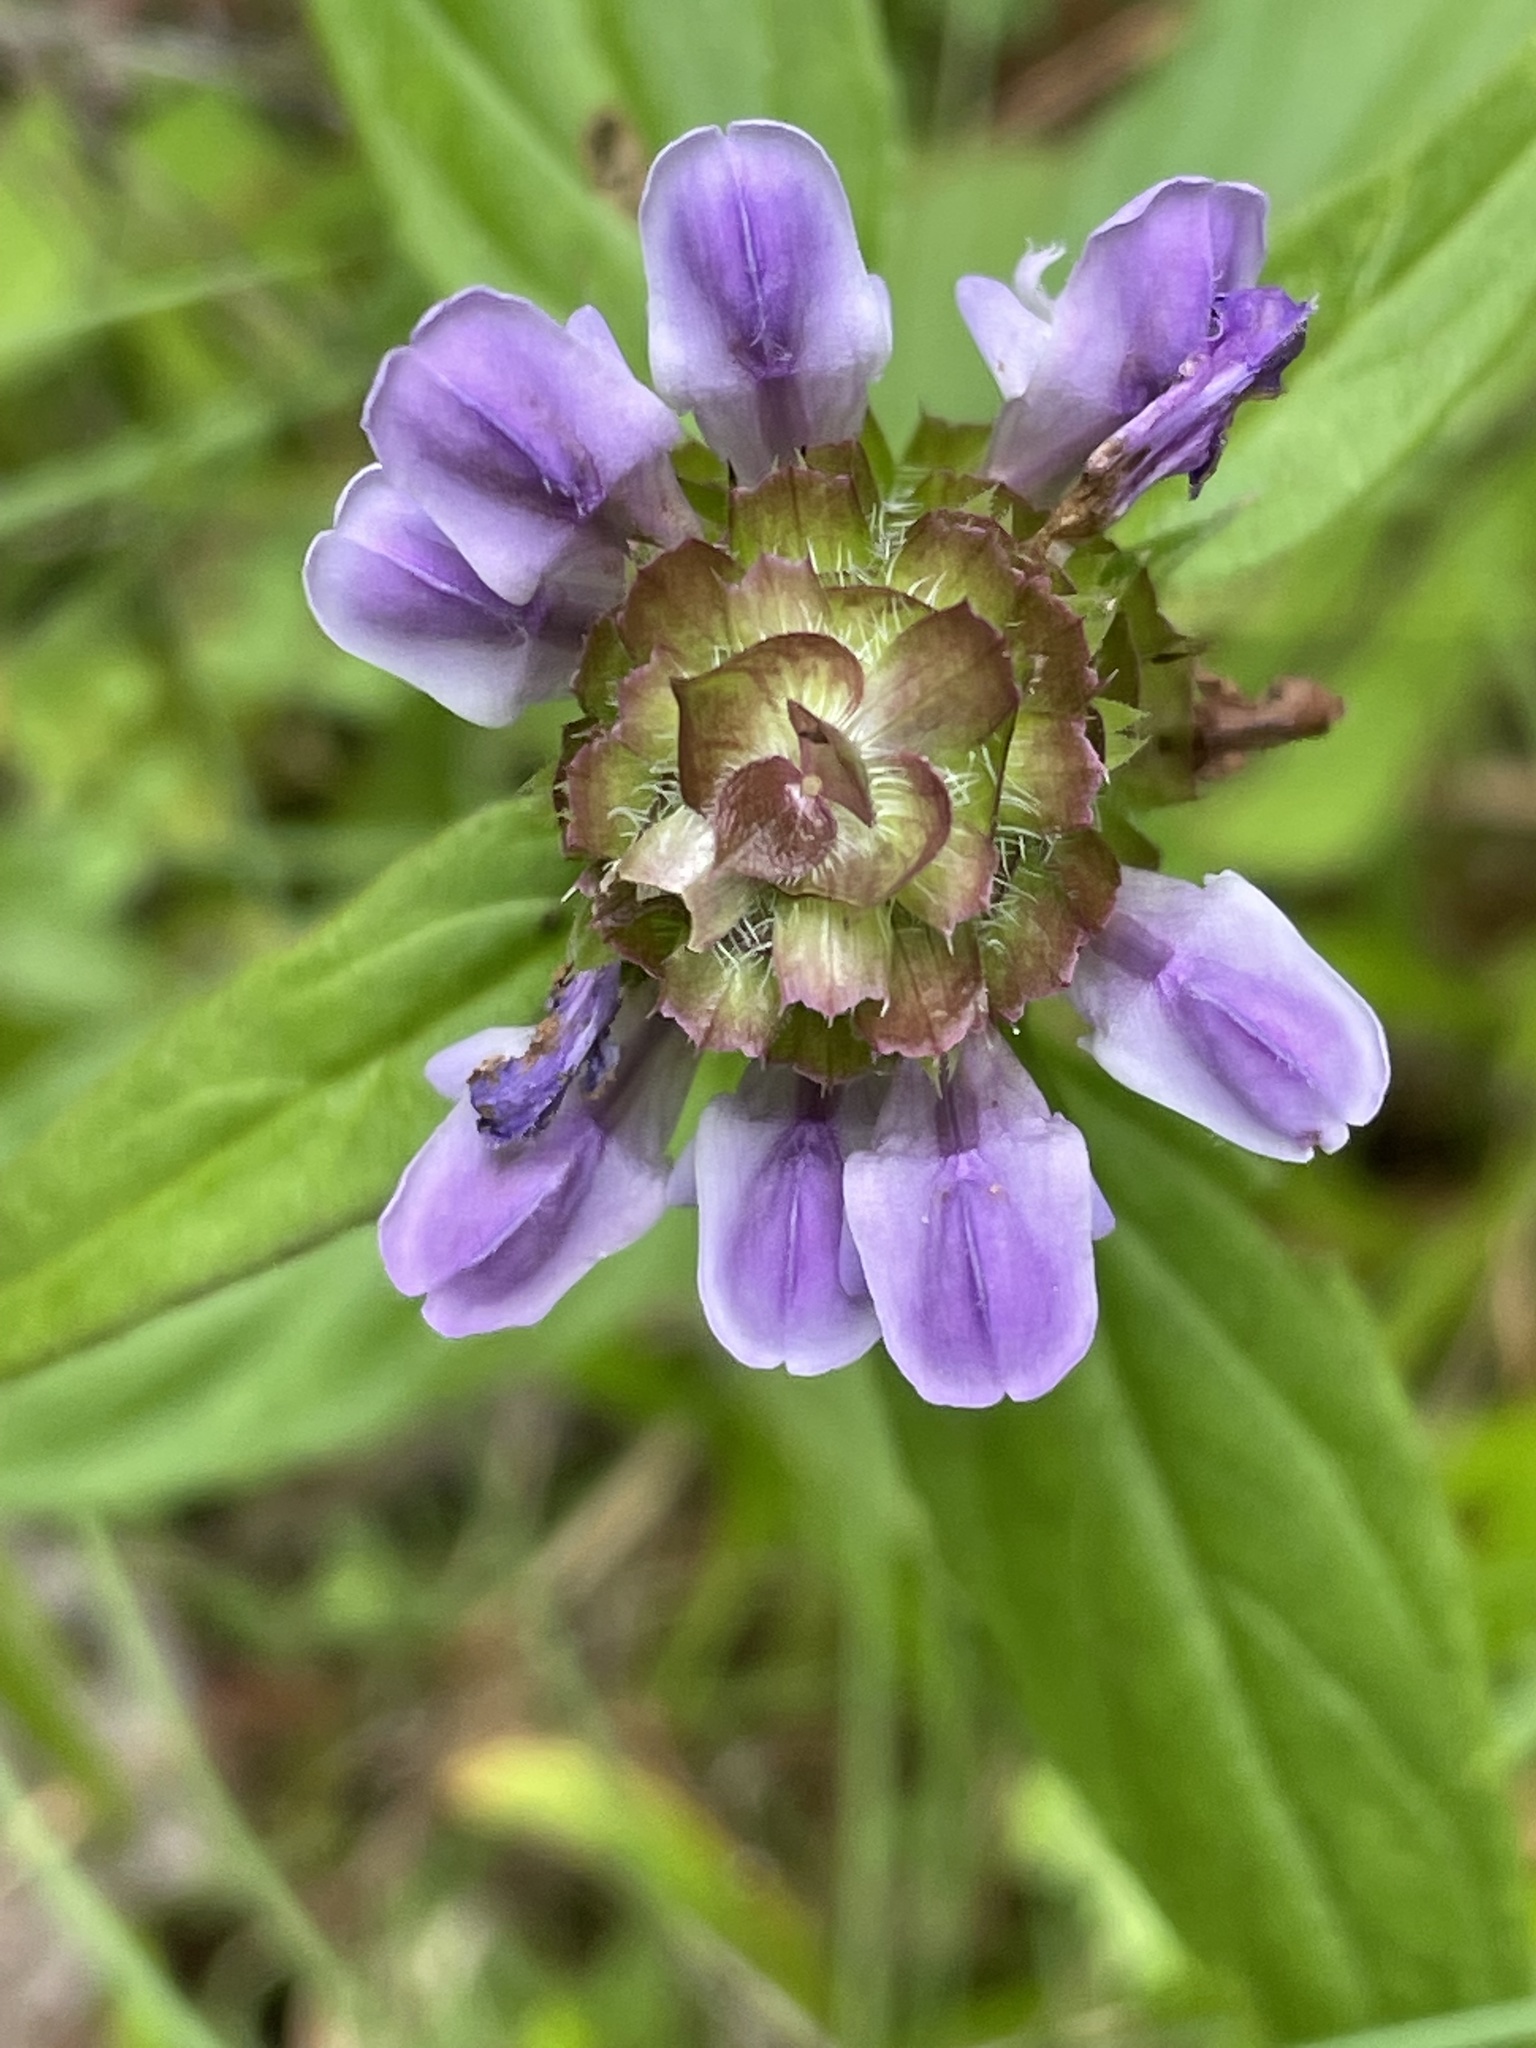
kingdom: Plantae
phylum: Tracheophyta
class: Magnoliopsida
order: Lamiales
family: Lamiaceae
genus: Prunella
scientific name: Prunella vulgaris
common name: Heal-all
